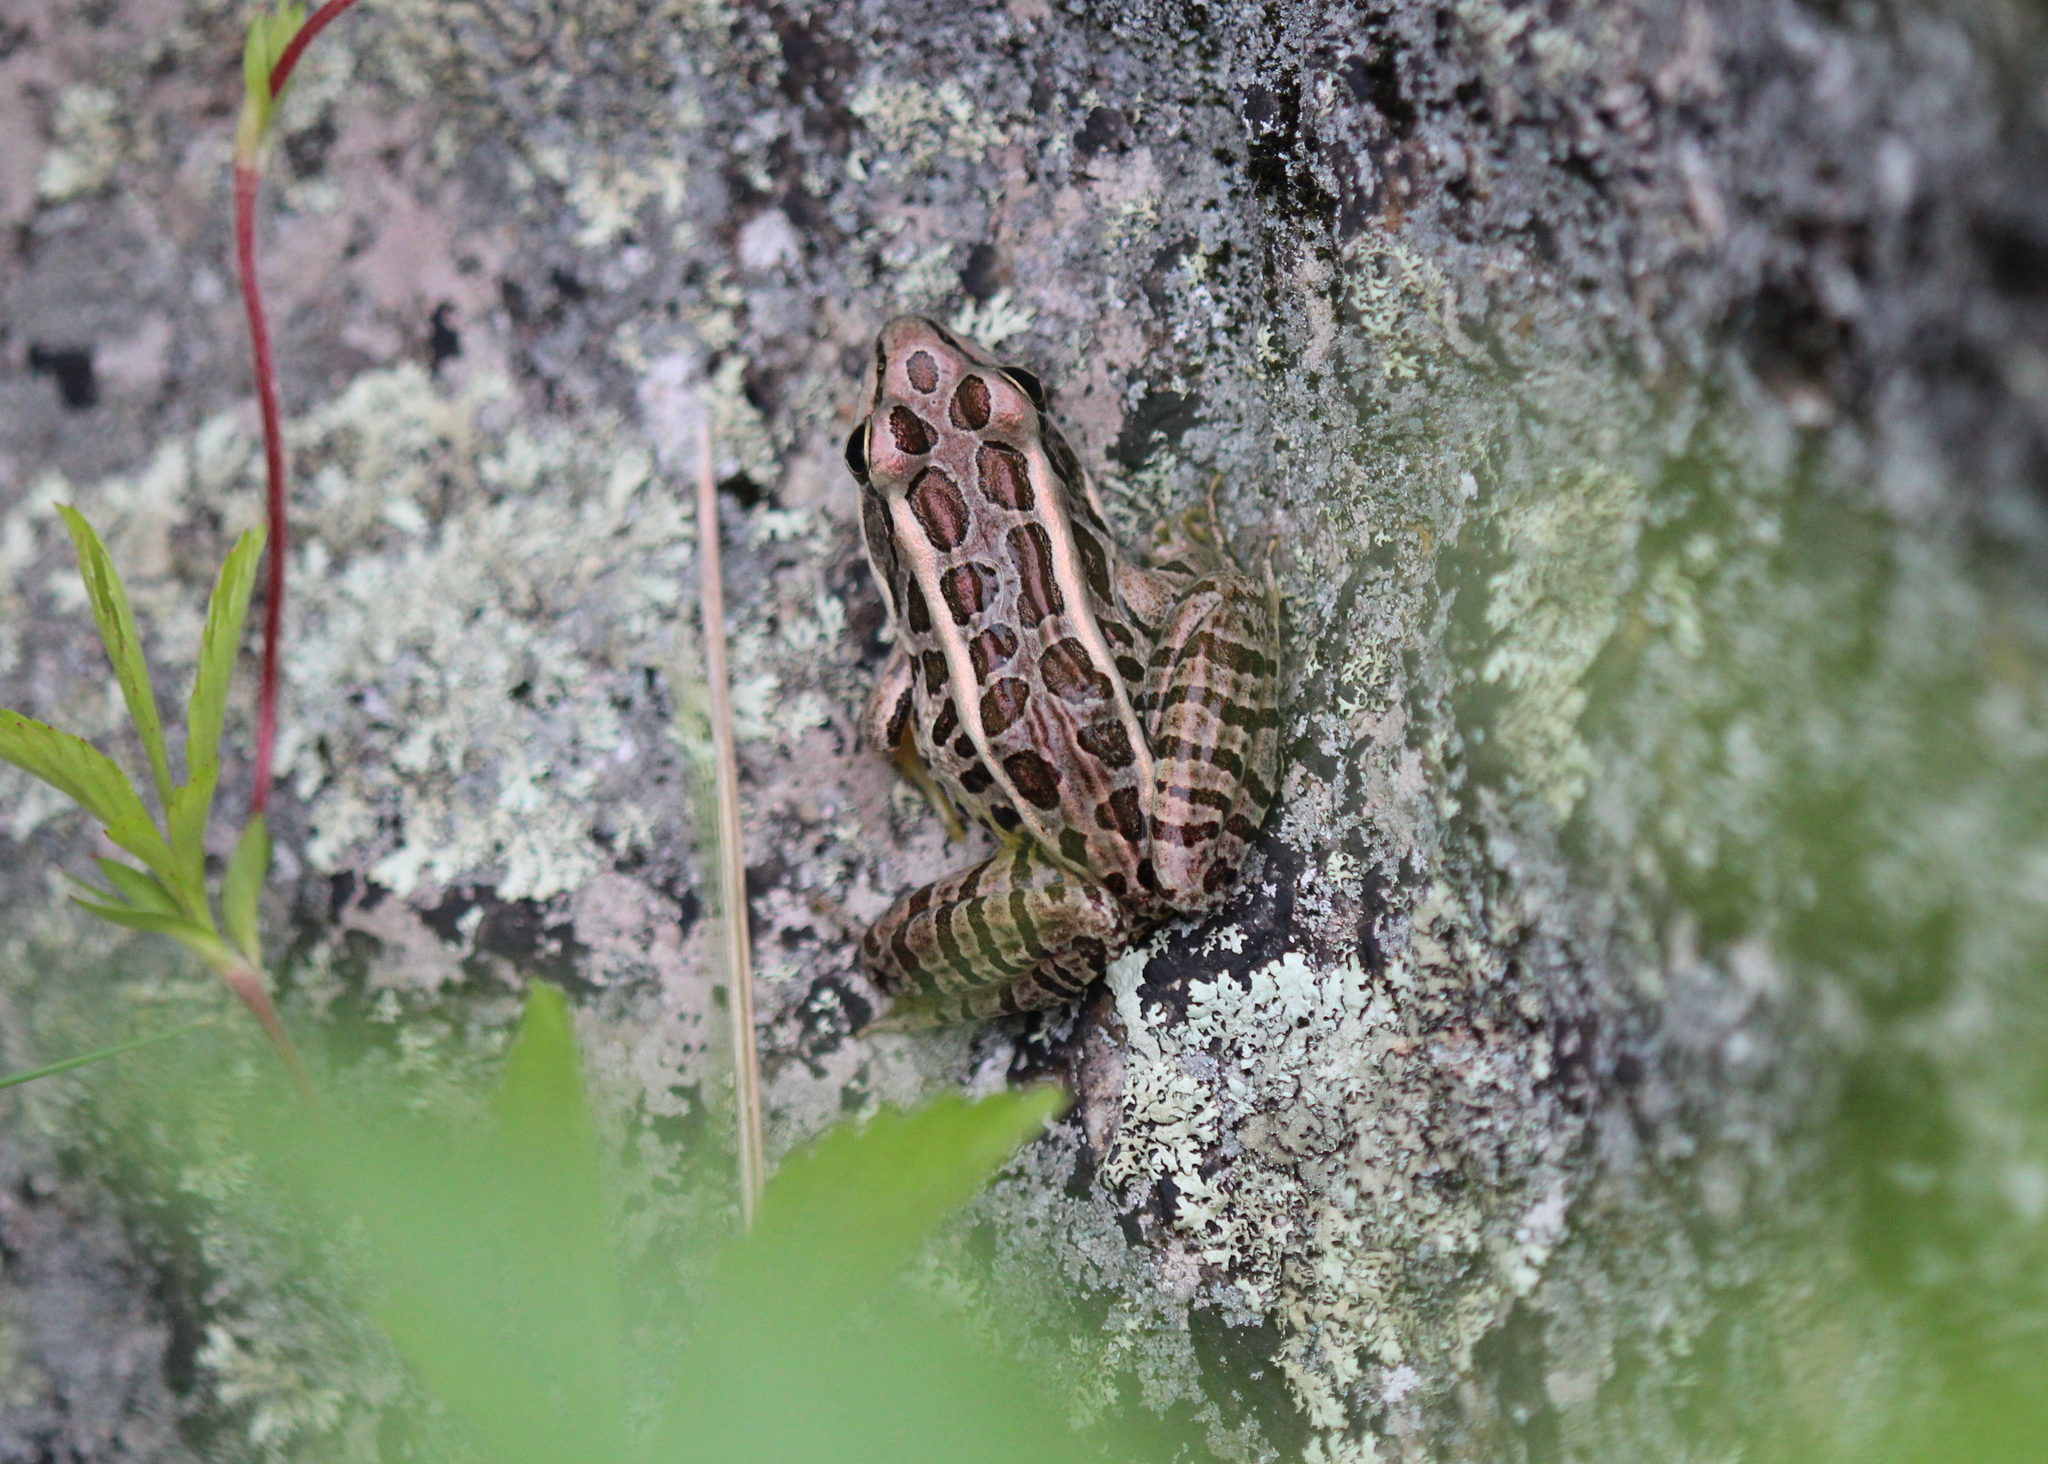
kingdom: Animalia
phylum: Chordata
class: Amphibia
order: Anura
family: Ranidae
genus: Lithobates
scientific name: Lithobates palustris
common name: Pickerel frog
